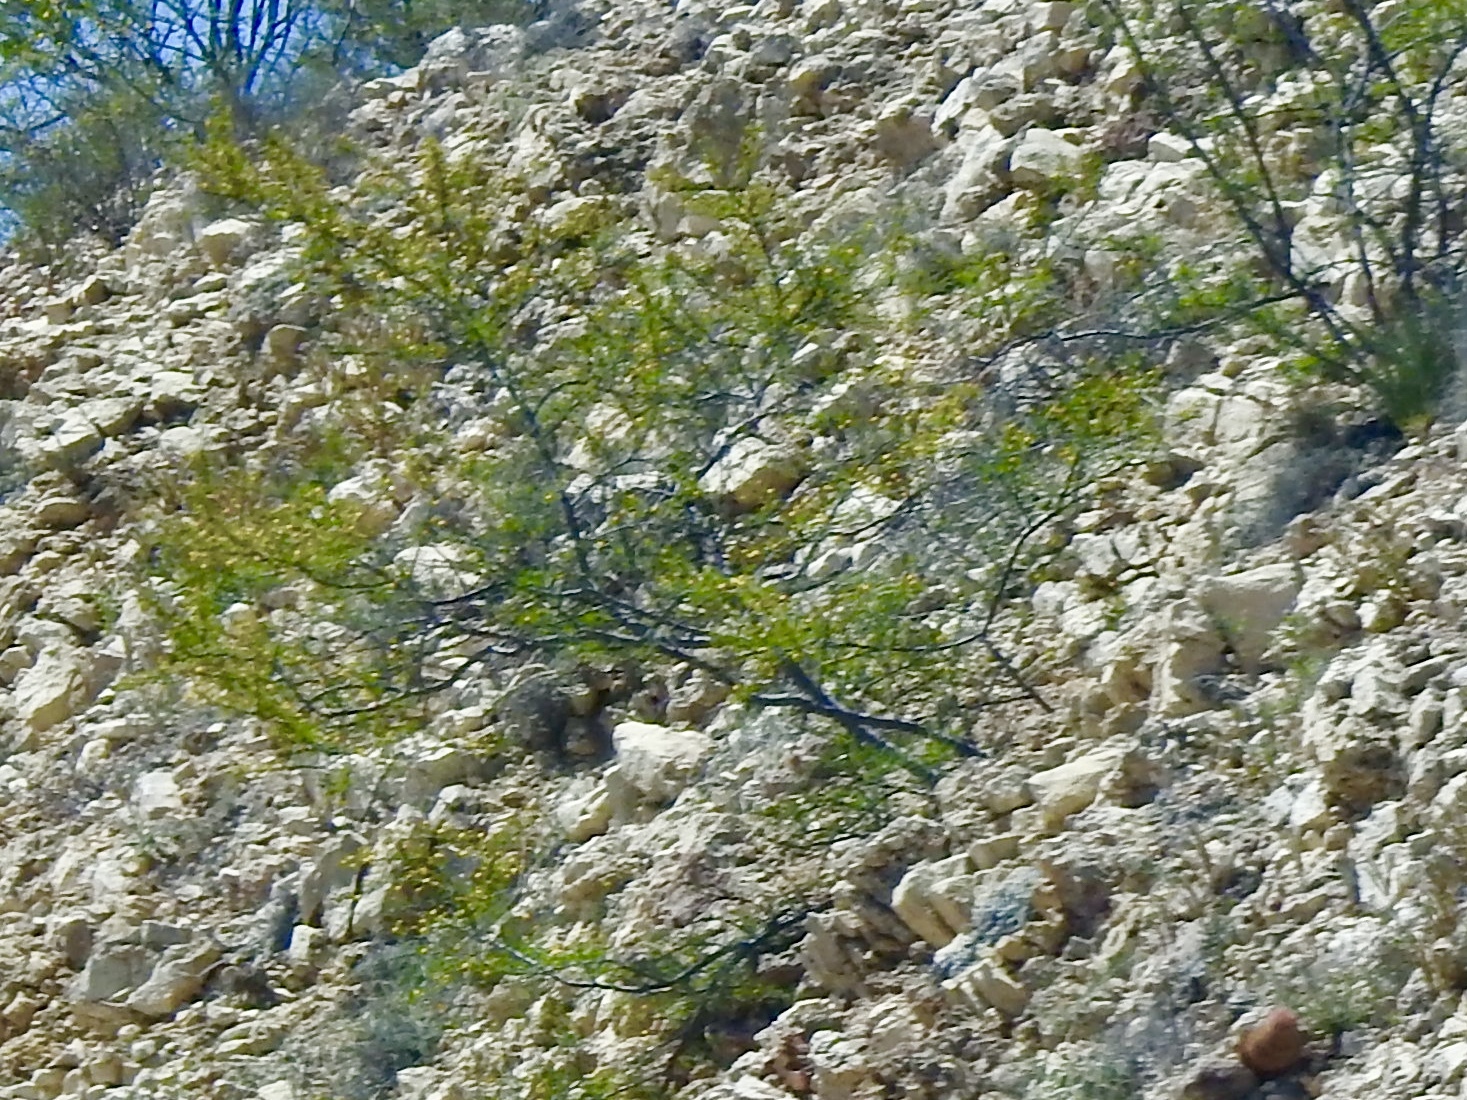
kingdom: Plantae
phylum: Tracheophyta
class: Magnoliopsida
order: Zygophyllales
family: Zygophyllaceae
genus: Larrea
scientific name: Larrea tridentata
